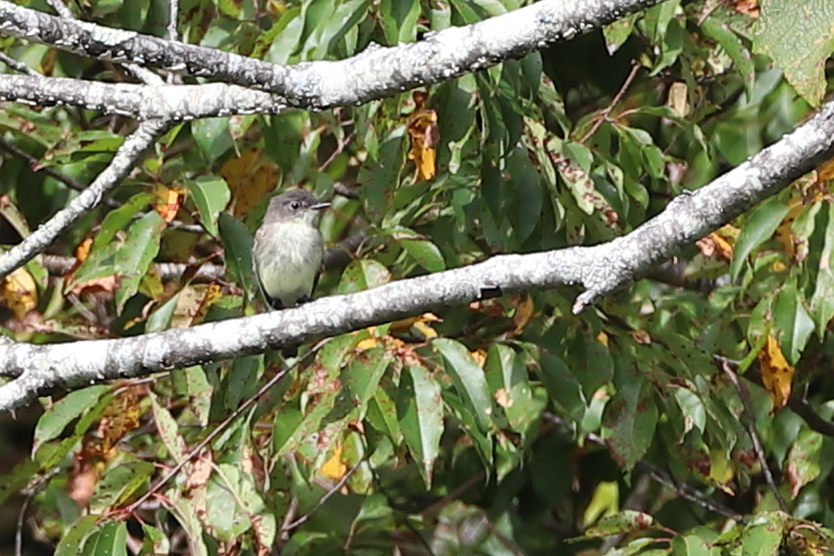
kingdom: Animalia
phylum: Chordata
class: Aves
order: Passeriformes
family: Tyrannidae
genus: Sayornis
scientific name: Sayornis phoebe
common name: Eastern phoebe
